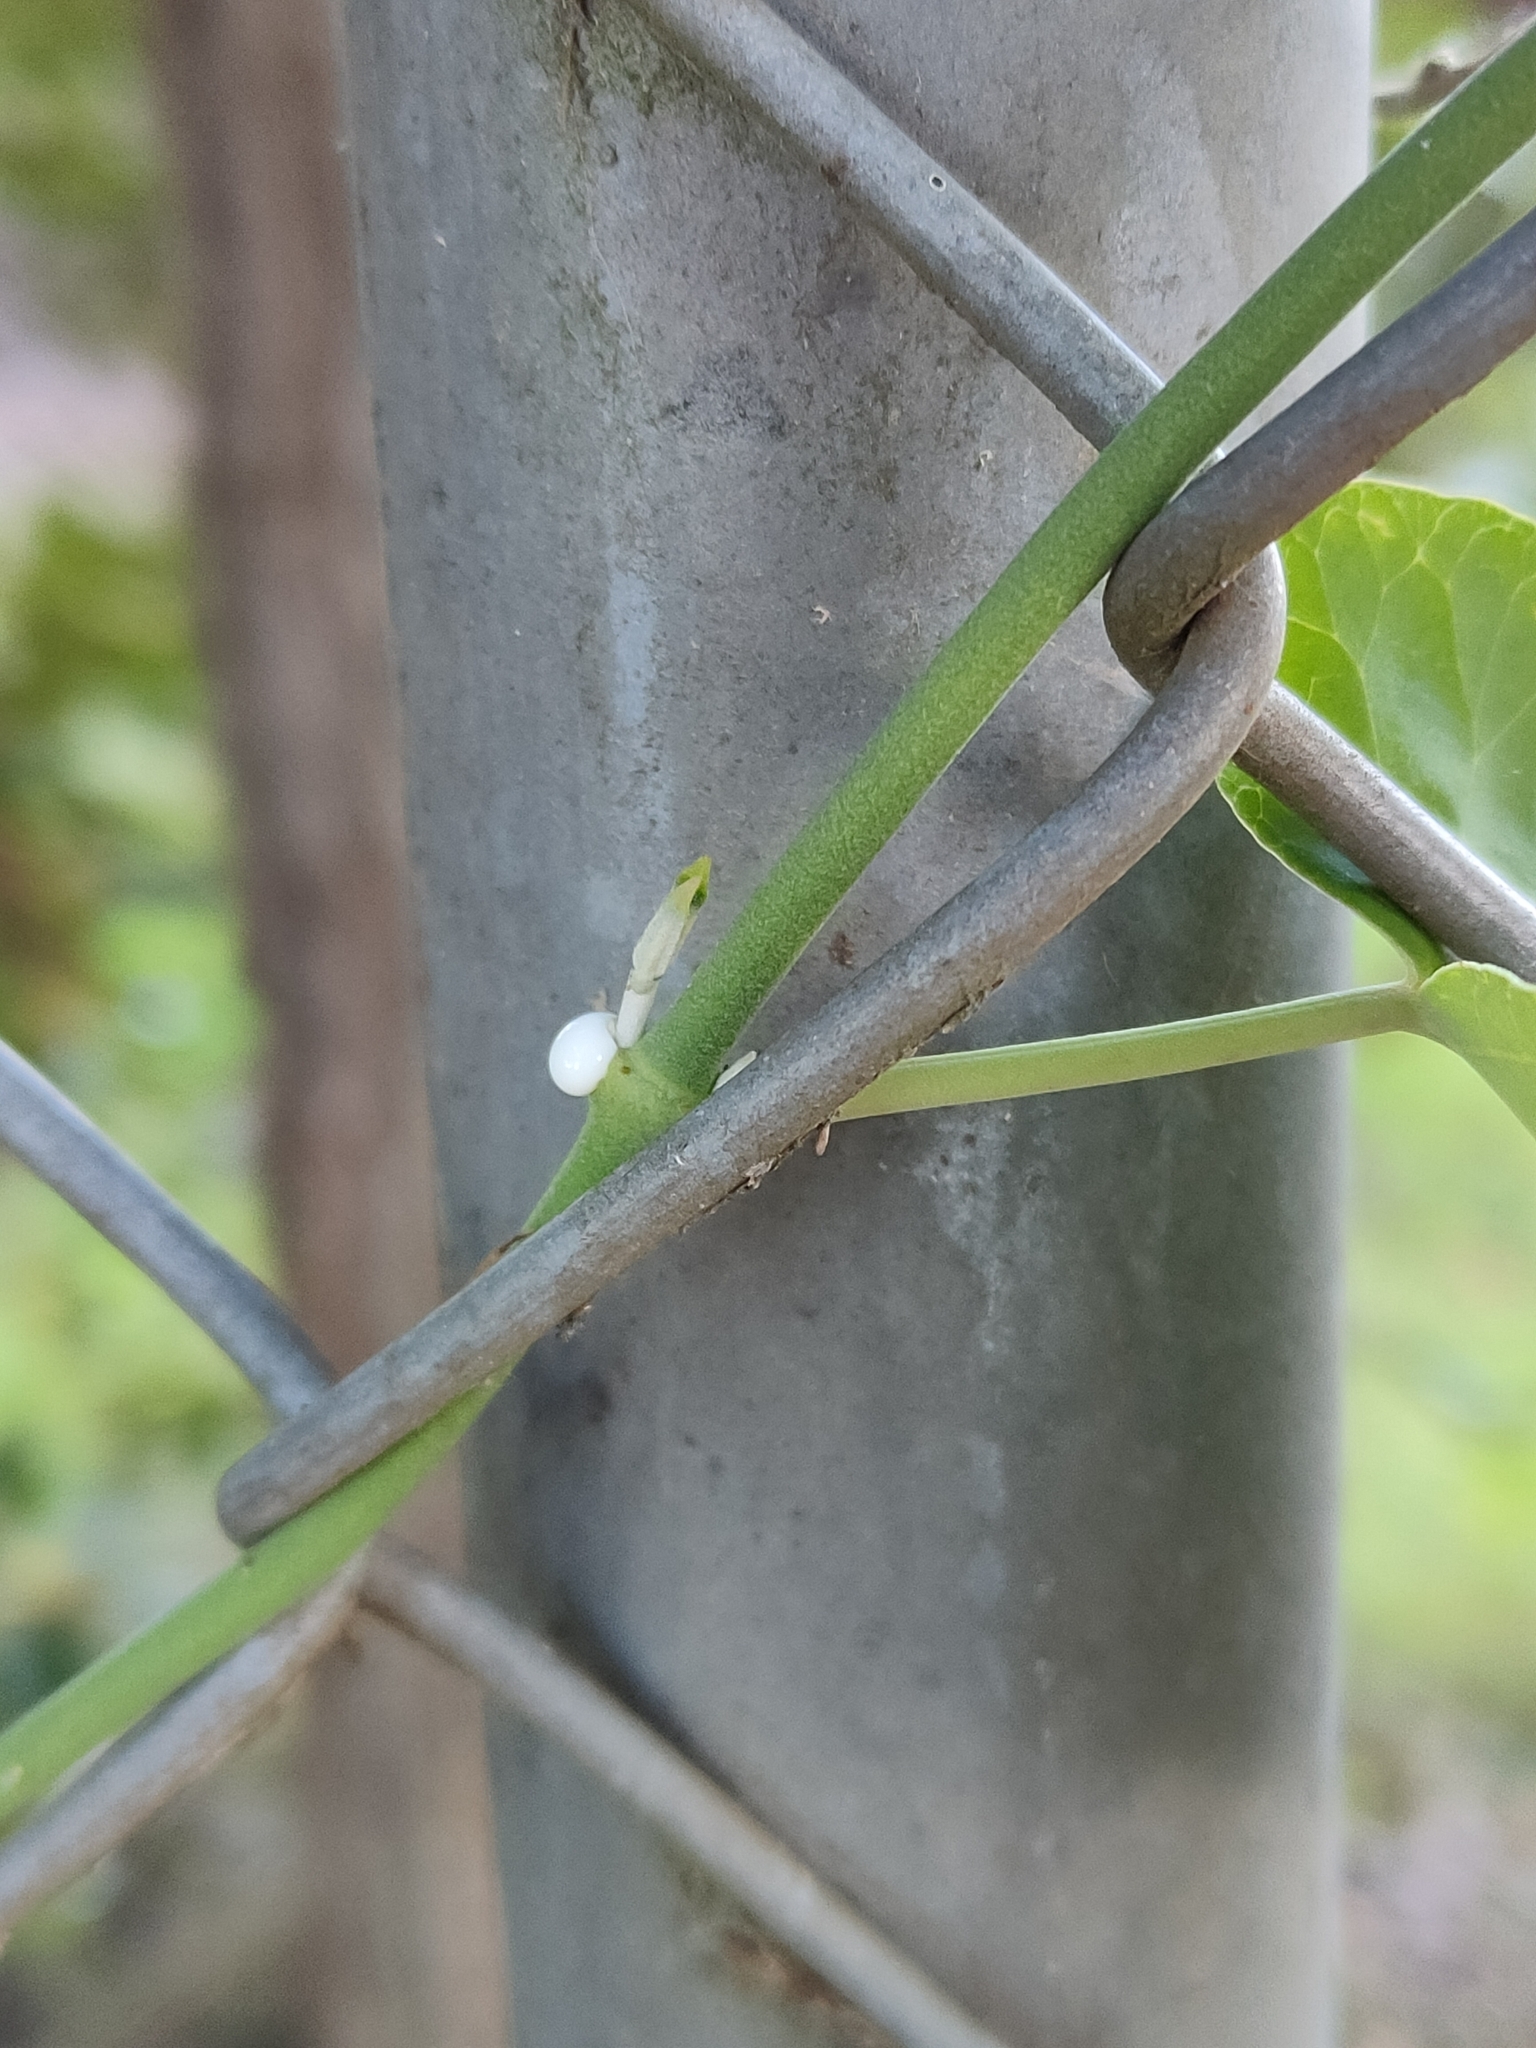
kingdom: Plantae
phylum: Tracheophyta
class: Magnoliopsida
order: Gentianales
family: Apocynaceae
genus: Araujia
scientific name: Araujia sericifera
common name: White bladderflower
